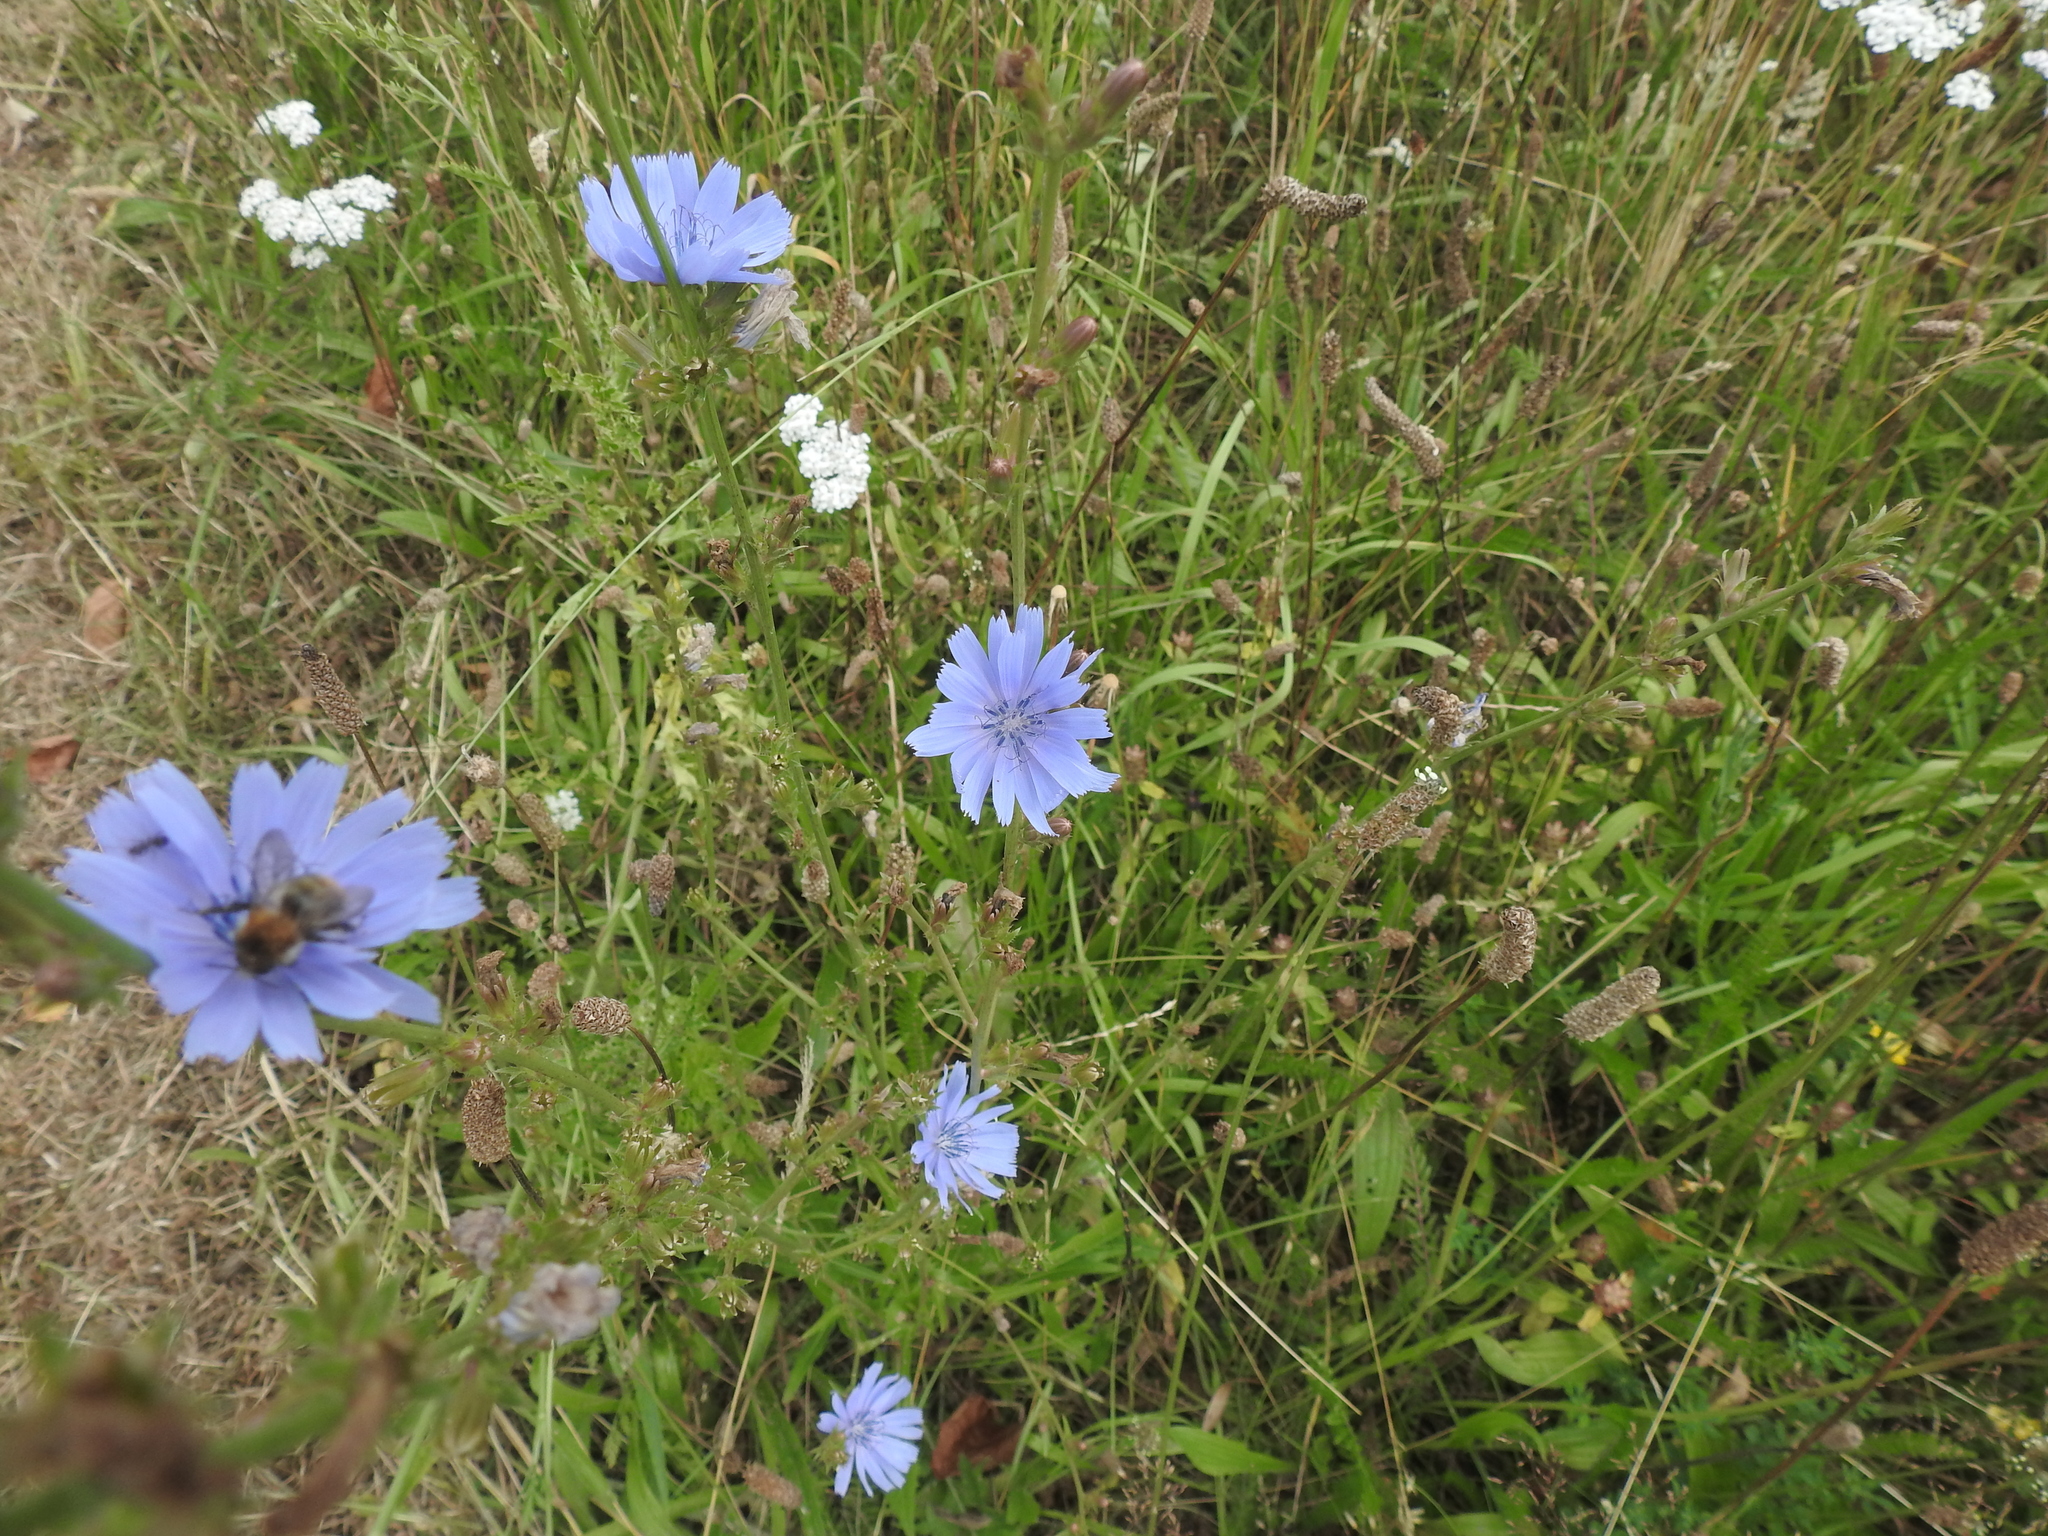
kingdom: Plantae
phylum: Tracheophyta
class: Magnoliopsida
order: Asterales
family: Asteraceae
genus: Cichorium
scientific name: Cichorium intybus
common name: Chicory
